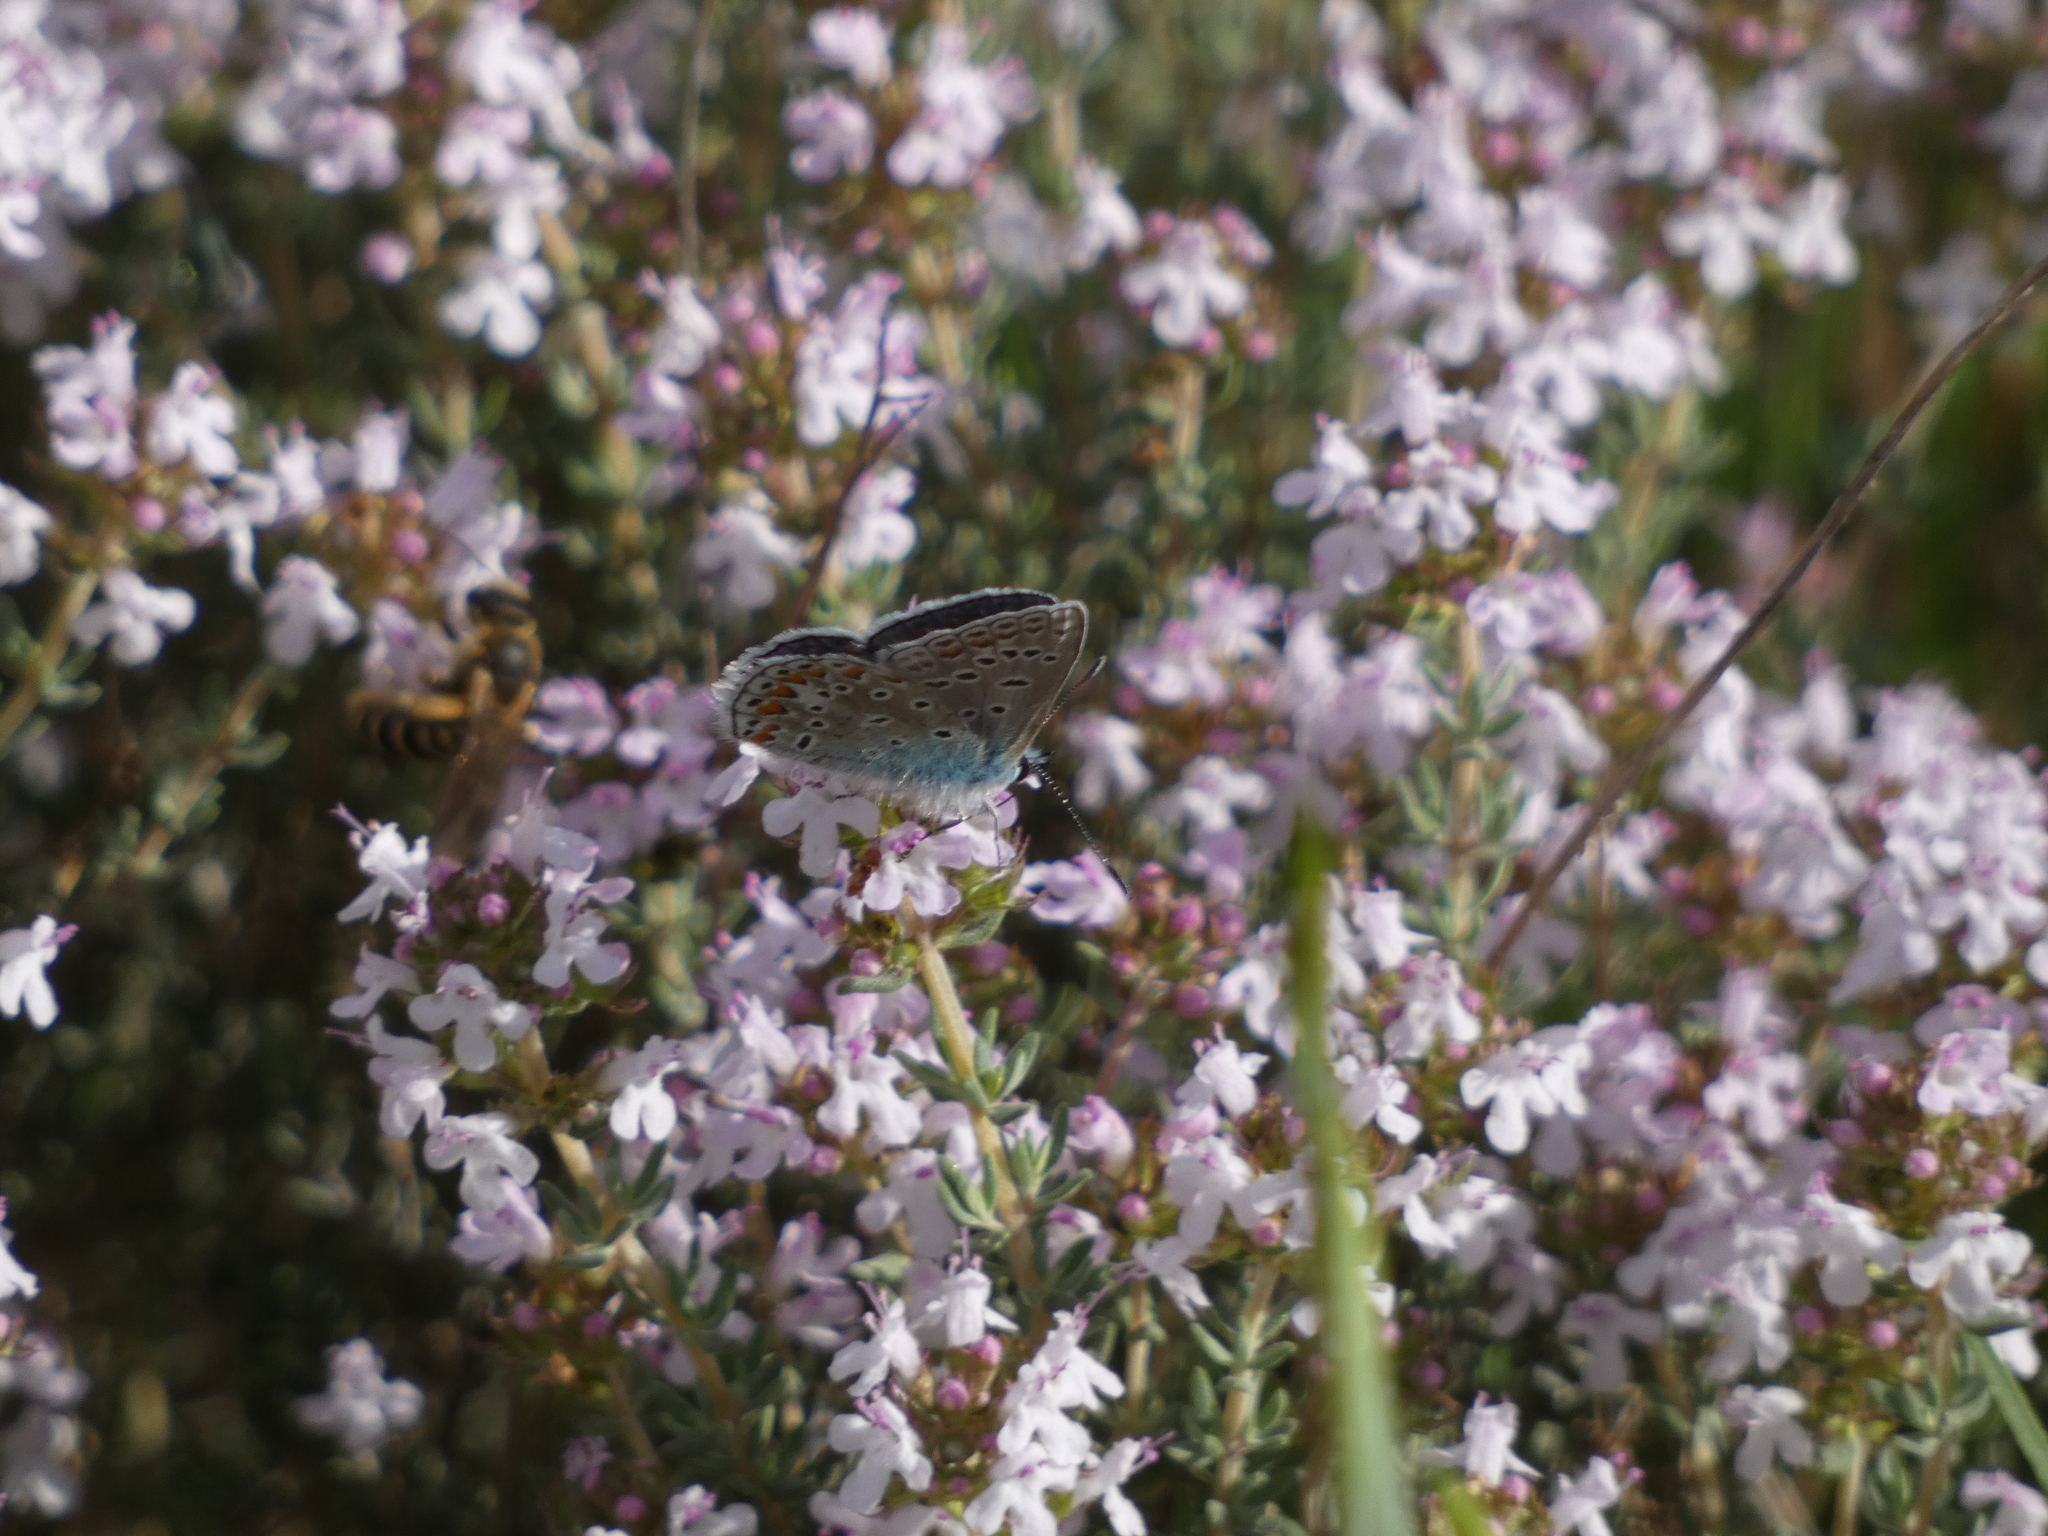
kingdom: Animalia
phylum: Arthropoda
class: Insecta
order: Lepidoptera
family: Lycaenidae
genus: Polyommatus
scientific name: Polyommatus icarus
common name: Common blue
